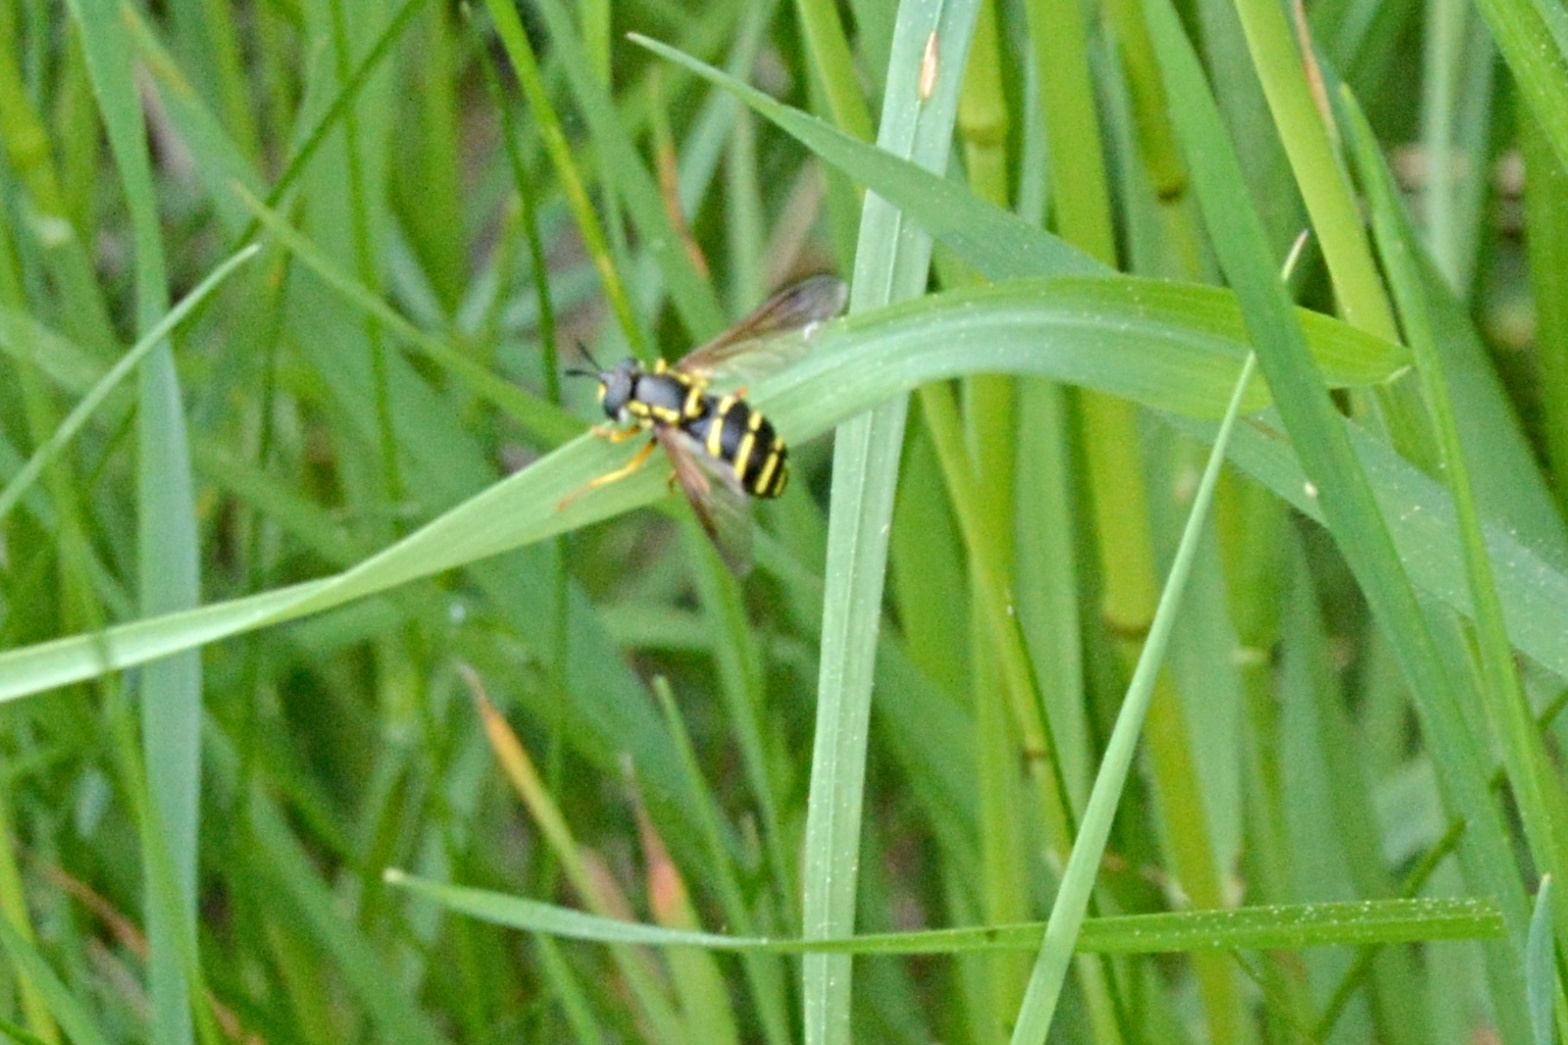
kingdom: Animalia
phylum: Arthropoda
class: Insecta
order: Diptera
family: Syrphidae
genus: Chrysotoxum
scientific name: Chrysotoxum festivum
